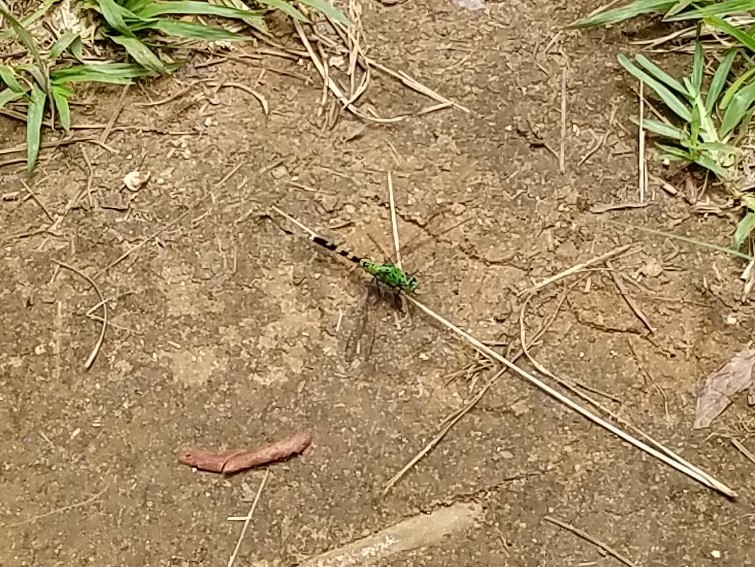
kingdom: Animalia
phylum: Arthropoda
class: Insecta
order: Odonata
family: Libellulidae
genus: Erythemis
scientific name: Erythemis simplicicollis
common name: Eastern pondhawk
